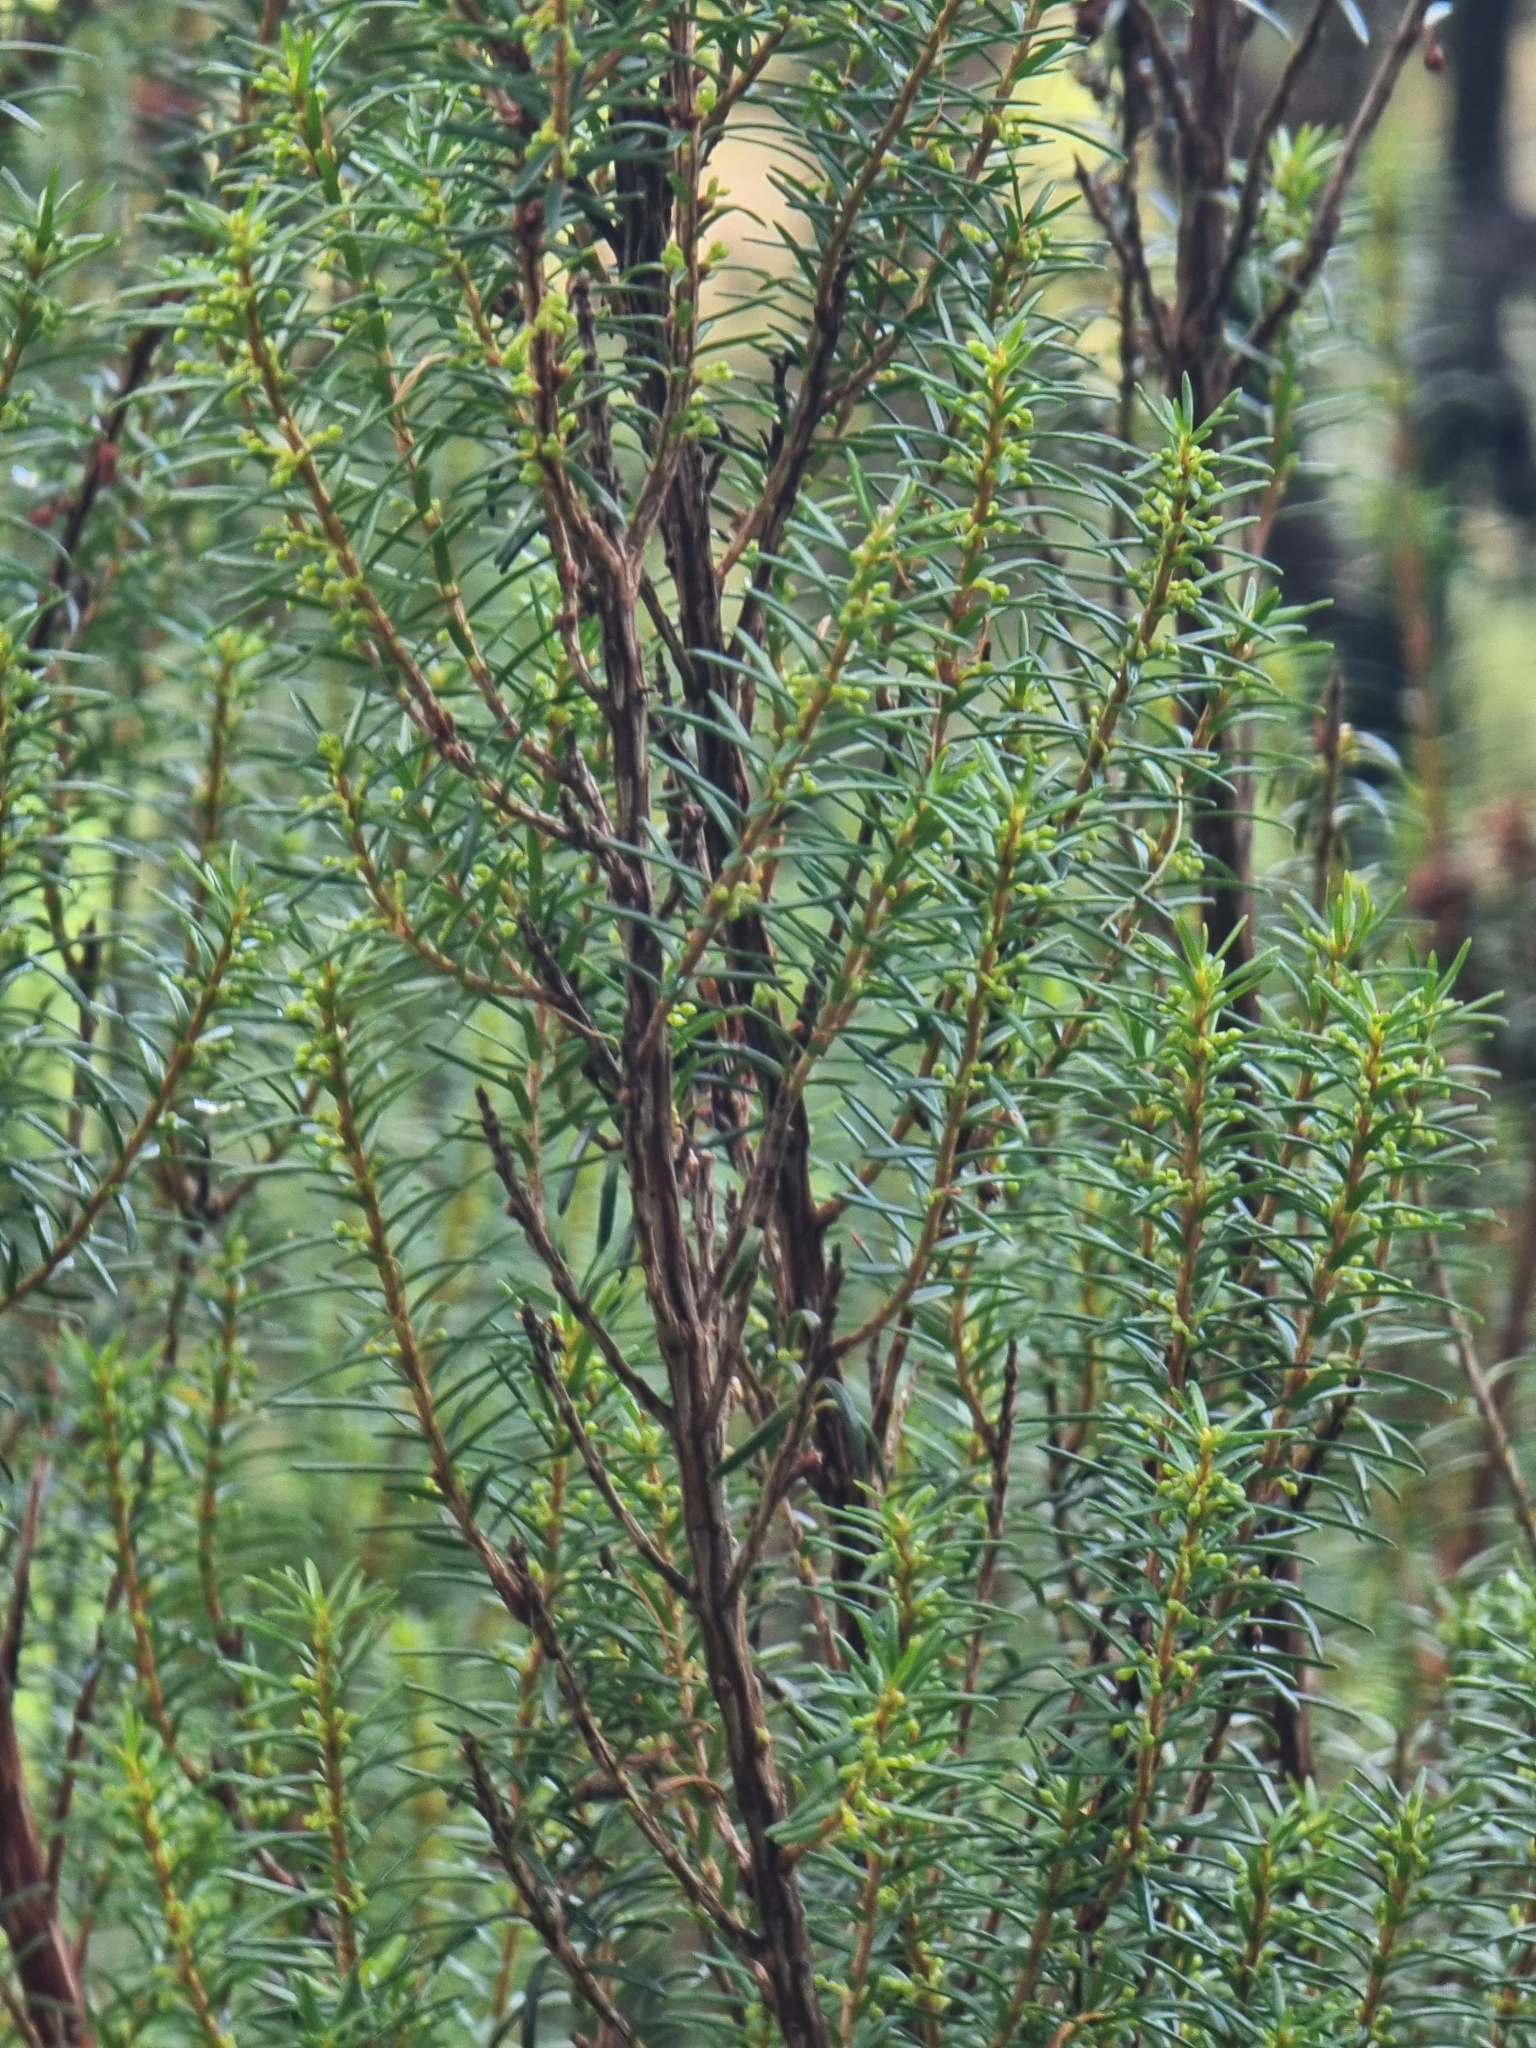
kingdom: Plantae
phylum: Tracheophyta
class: Magnoliopsida
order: Ericales
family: Ericaceae
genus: Erica
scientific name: Erica platycodon
